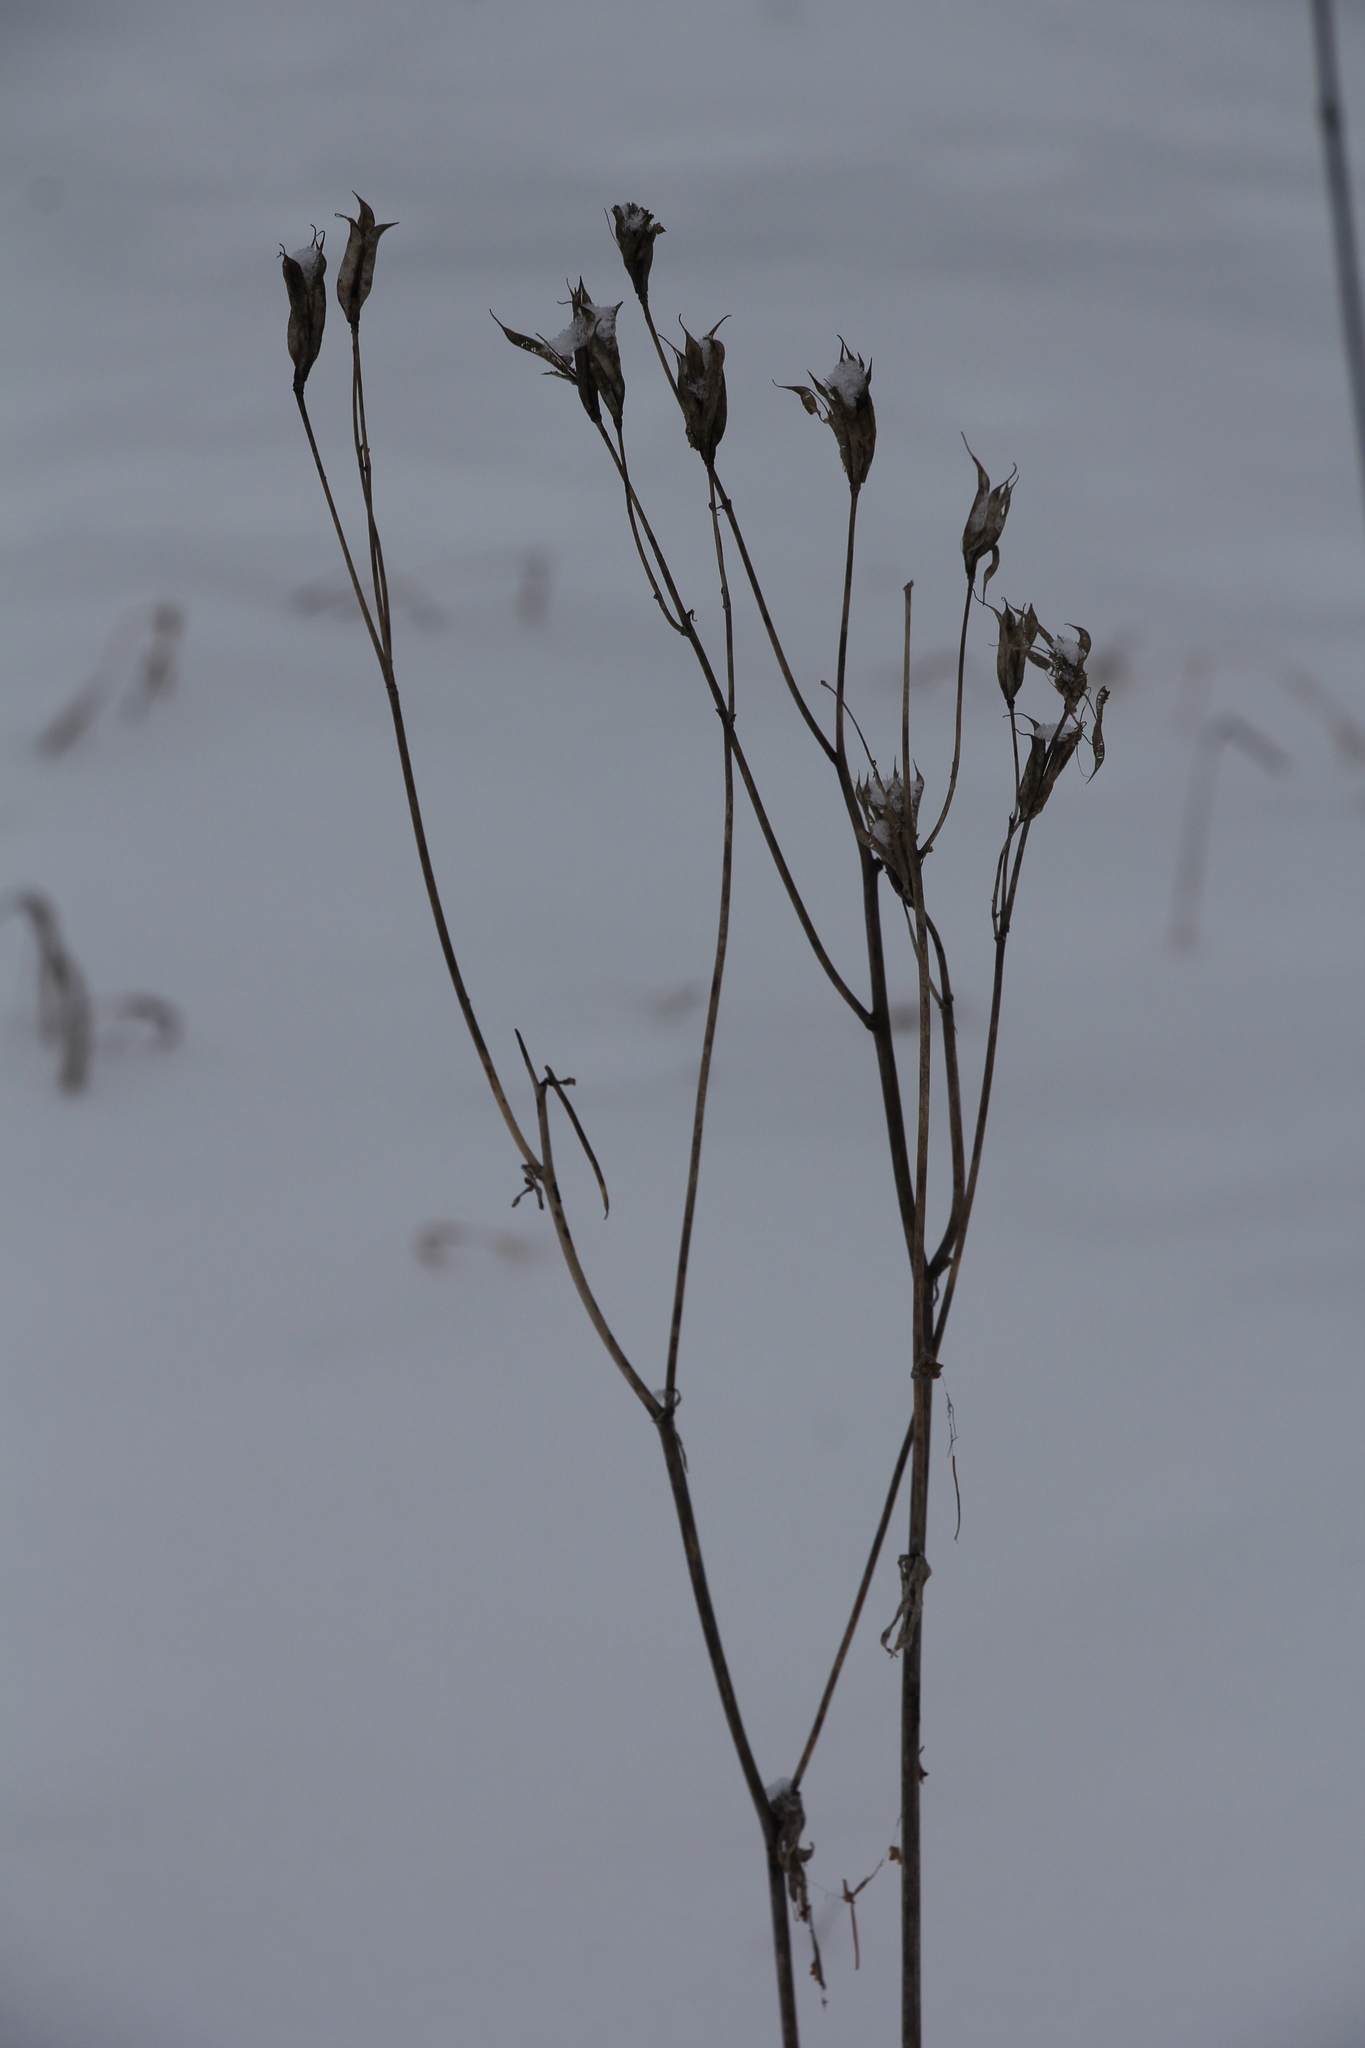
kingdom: Plantae
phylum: Tracheophyta
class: Magnoliopsida
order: Ranunculales
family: Ranunculaceae
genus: Aquilegia
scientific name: Aquilegia vulgaris
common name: Columbine
